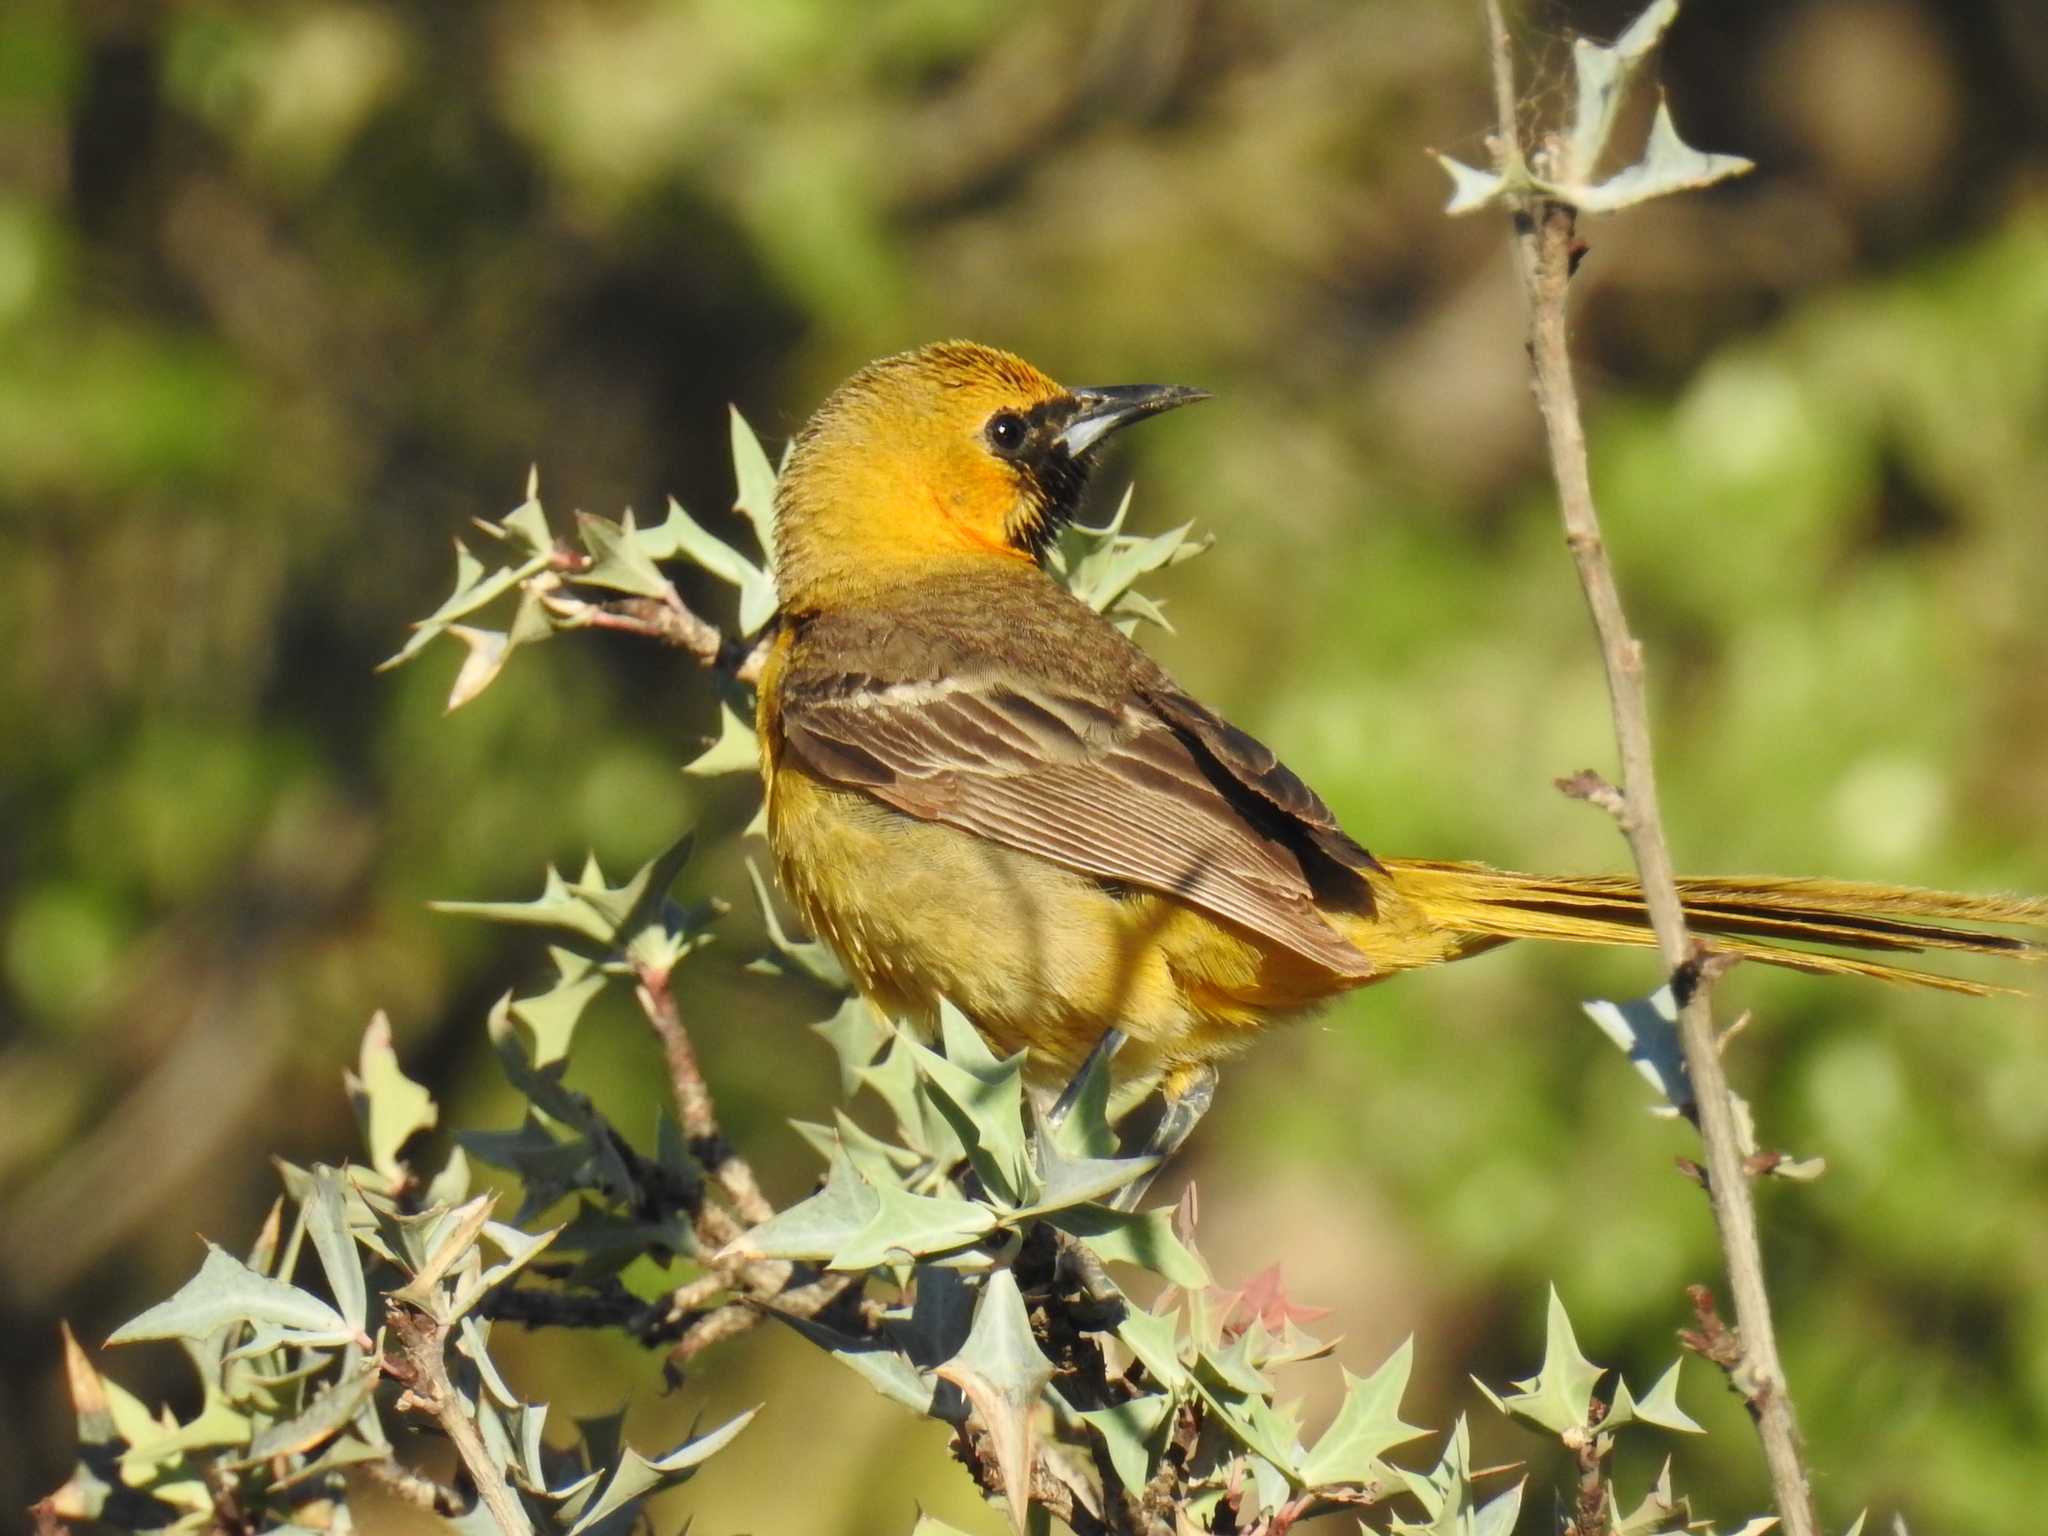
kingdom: Animalia
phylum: Chordata
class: Aves
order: Passeriformes
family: Icteridae
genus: Icterus
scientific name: Icterus cucullatus
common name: Hooded oriole
